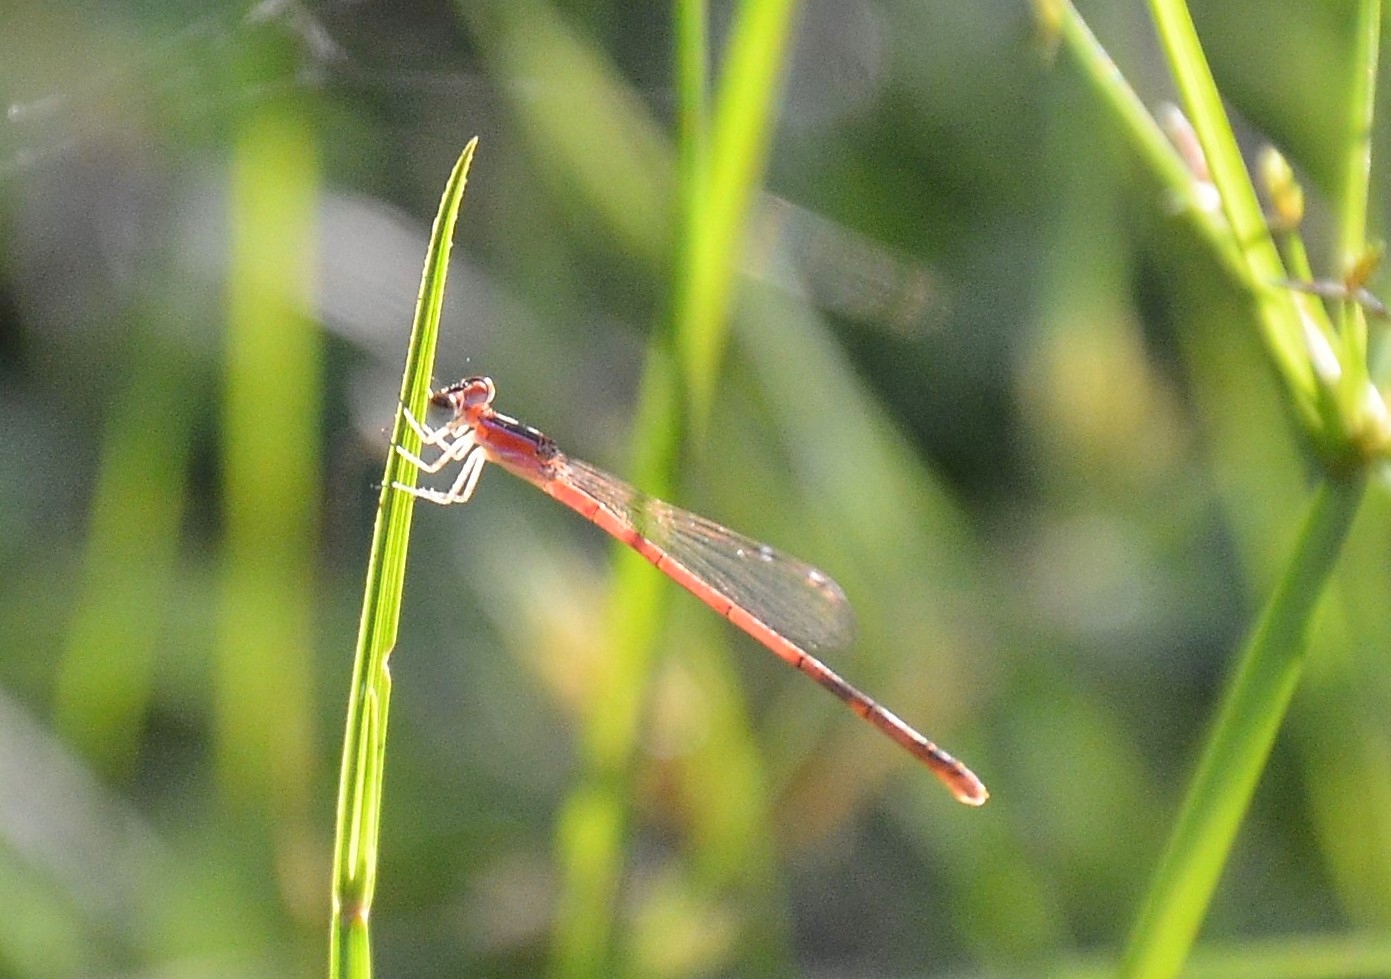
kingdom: Animalia
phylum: Arthropoda
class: Insecta
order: Odonata
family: Coenagrionidae
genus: Agriocnemis
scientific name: Agriocnemis pygmaea
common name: Pygmy wisp
